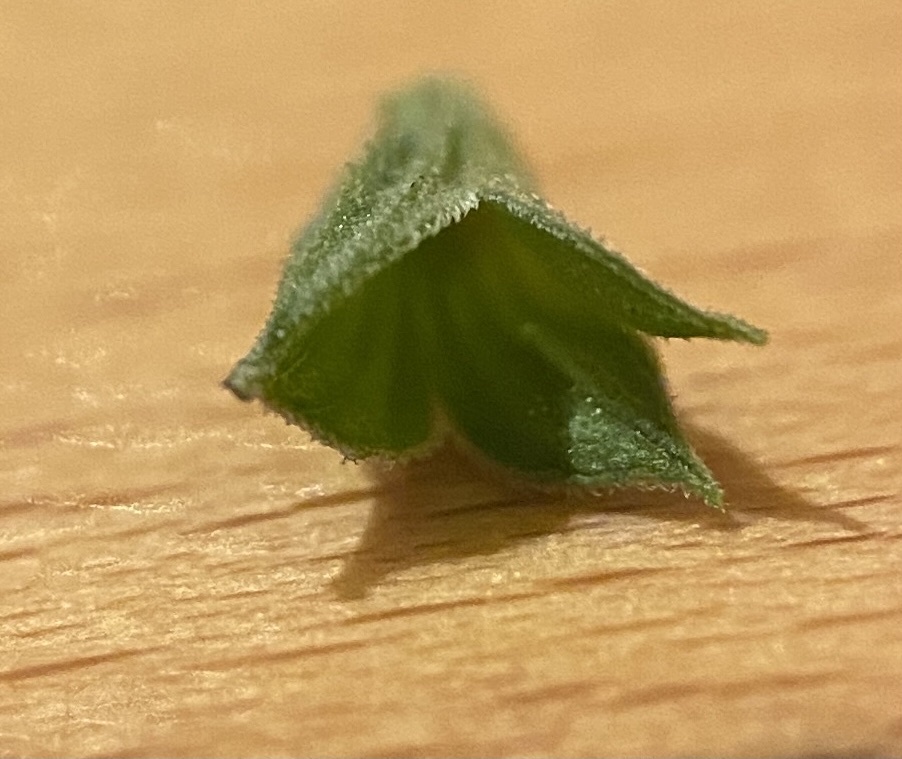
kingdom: Plantae
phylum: Tracheophyta
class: Magnoliopsida
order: Lamiales
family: Lamiaceae
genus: Salvia
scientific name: Salvia reflexa
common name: Mintweed
